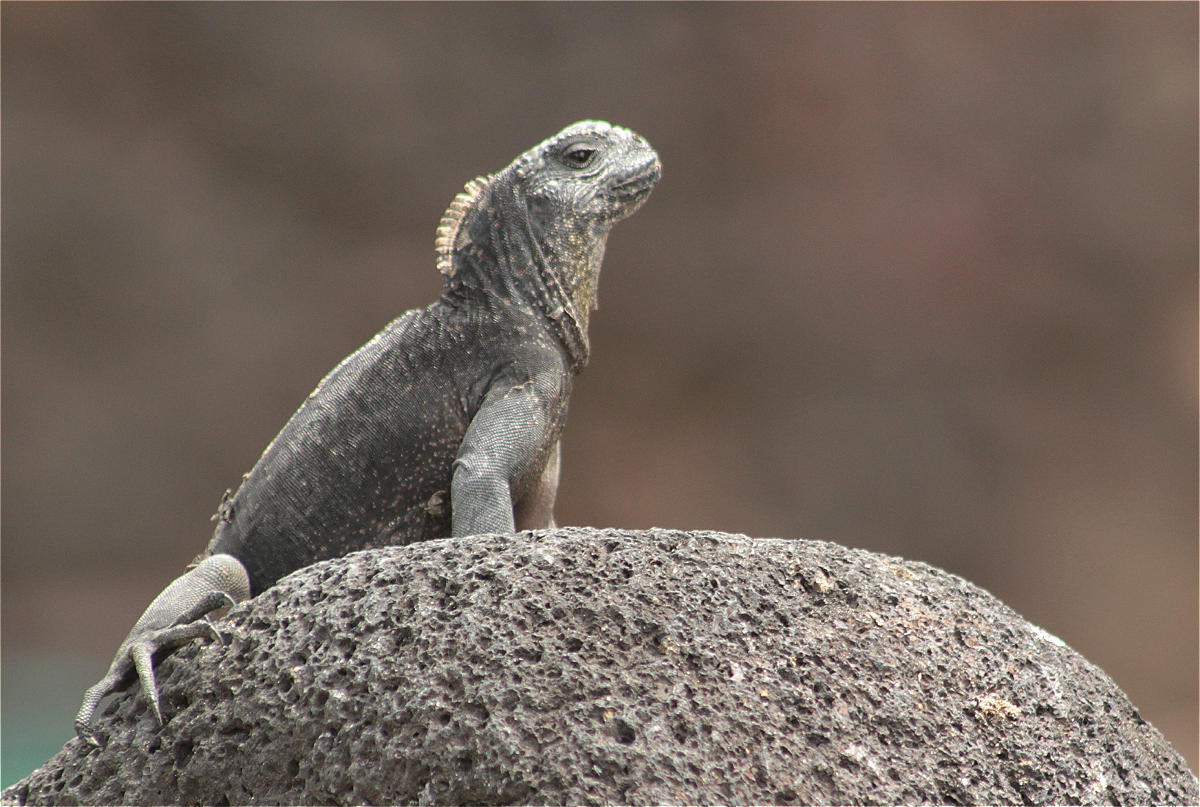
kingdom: Animalia
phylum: Chordata
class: Squamata
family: Iguanidae
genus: Amblyrhynchus
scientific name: Amblyrhynchus cristatus
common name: Marine iguana
